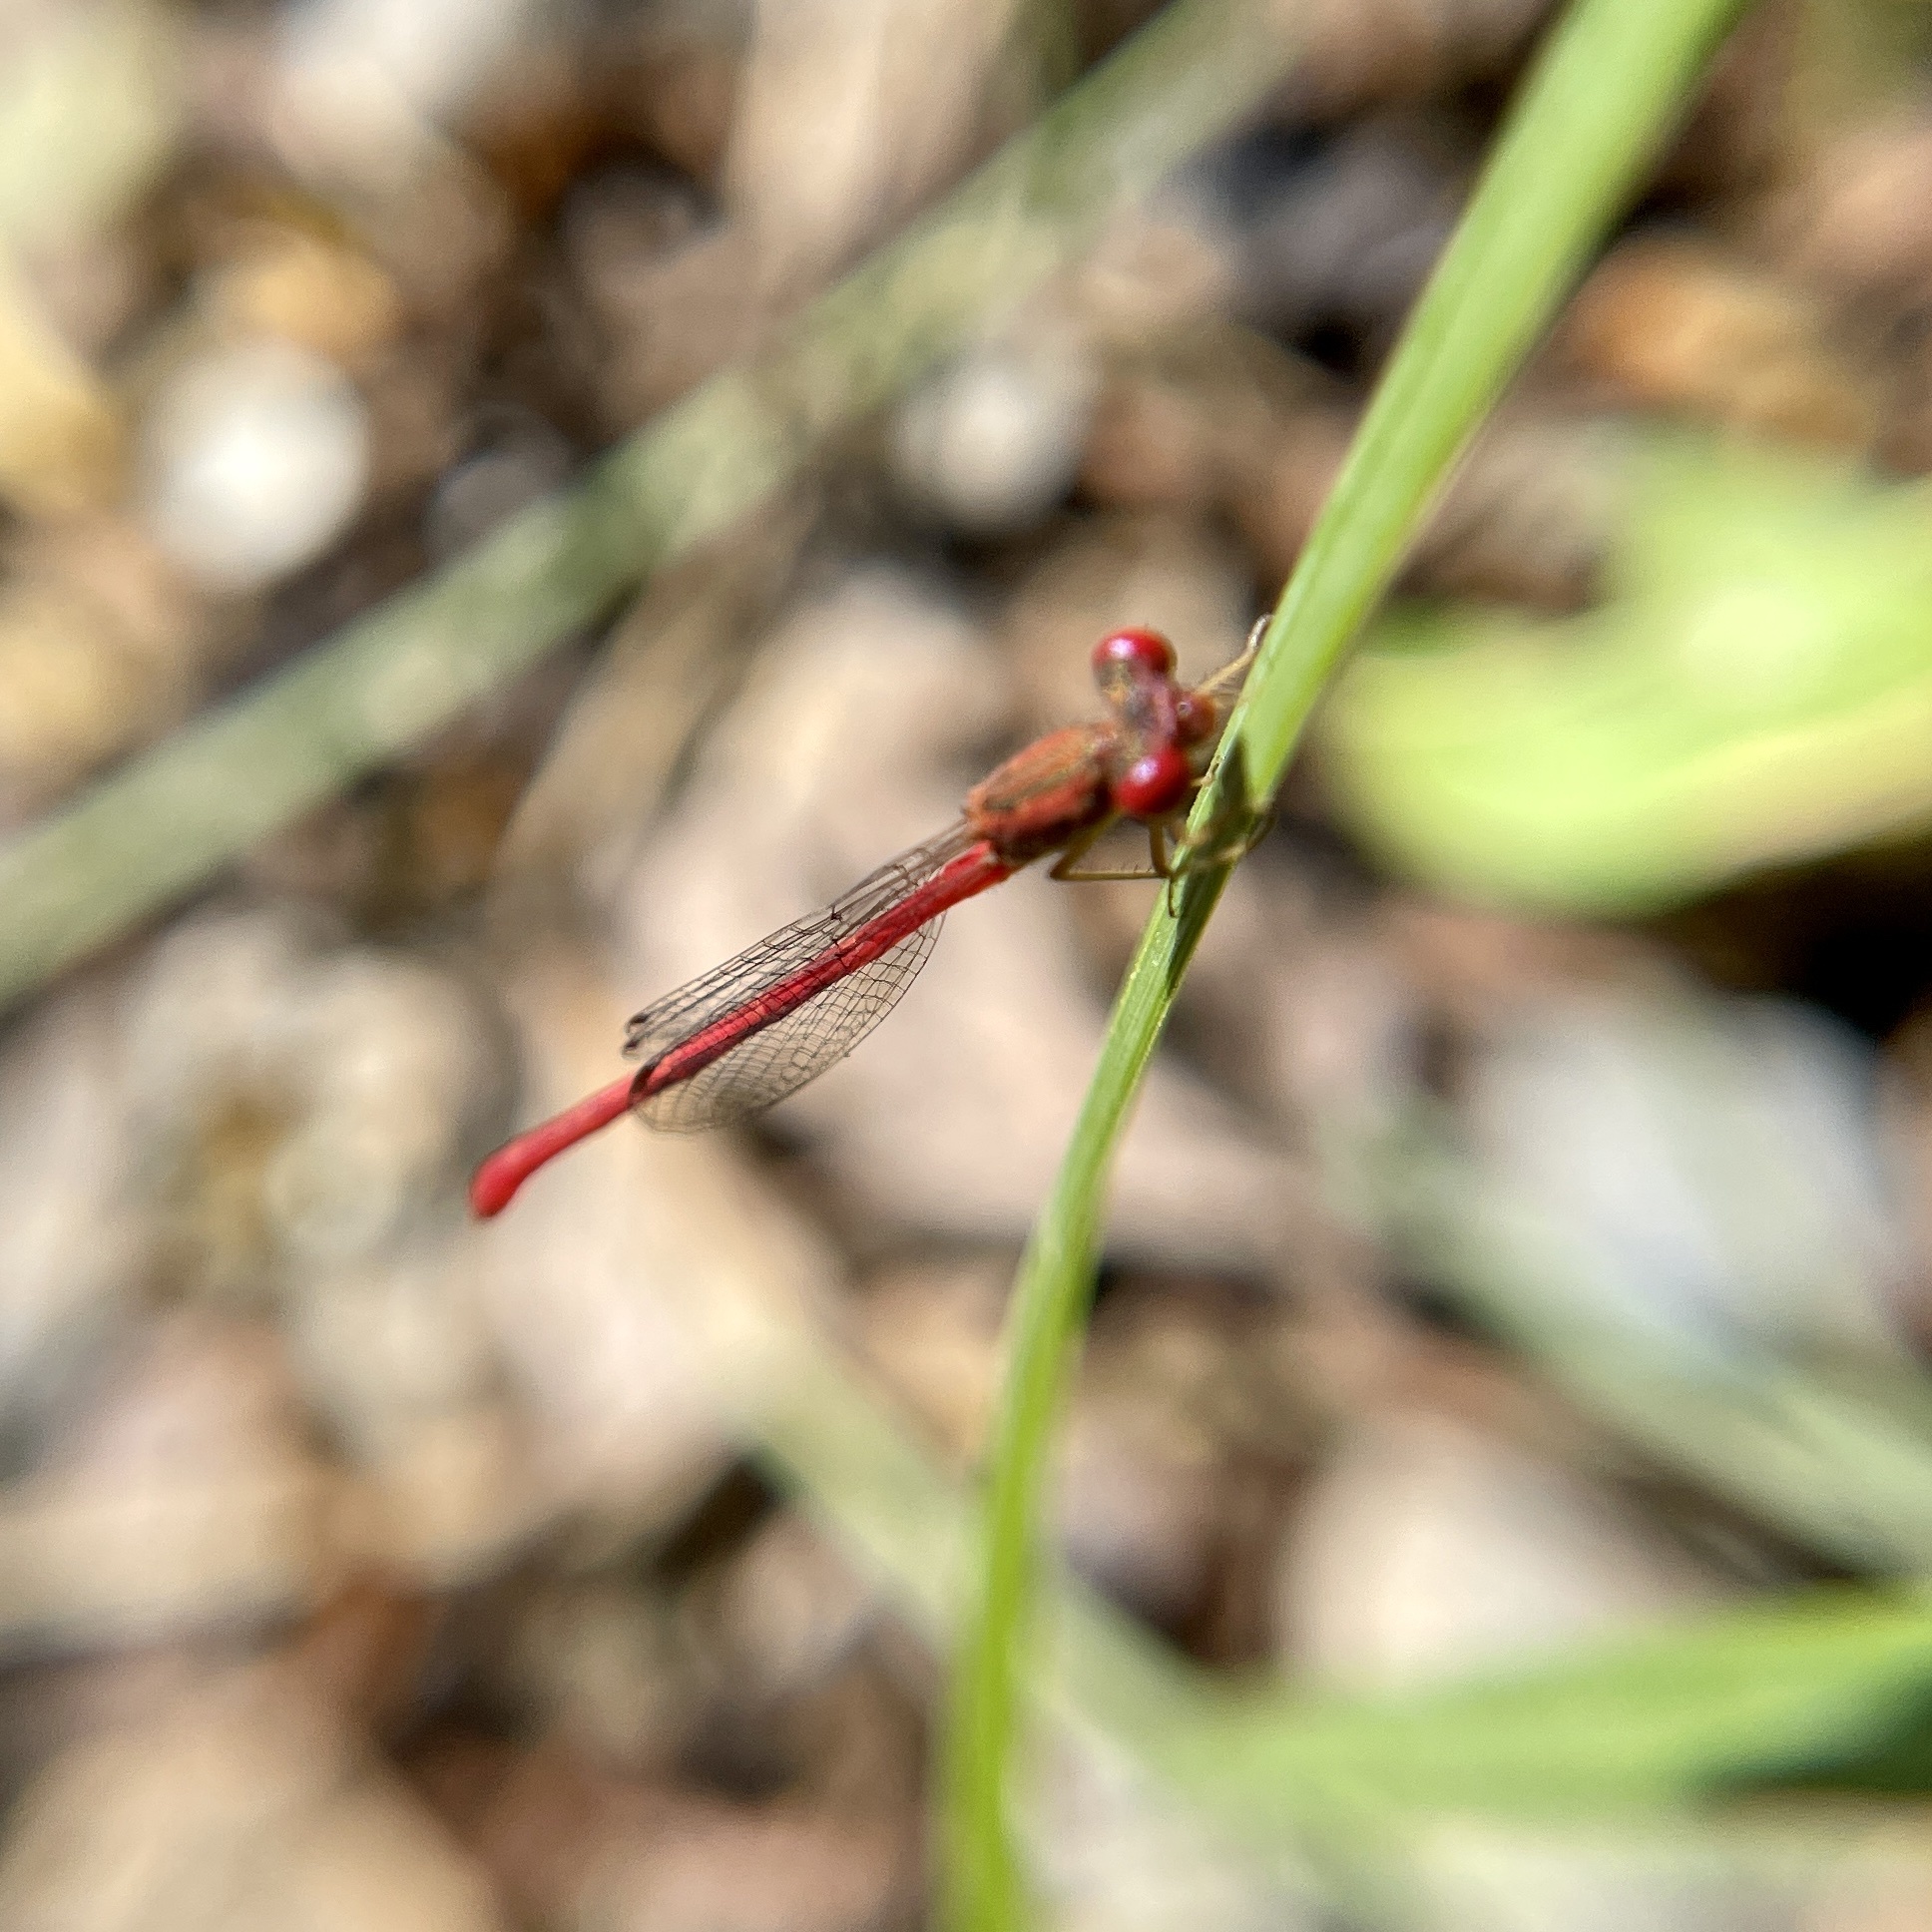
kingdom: Animalia
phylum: Arthropoda
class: Insecta
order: Odonata
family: Coenagrionidae
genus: Telebasis
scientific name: Telebasis salva
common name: Desert firetail
